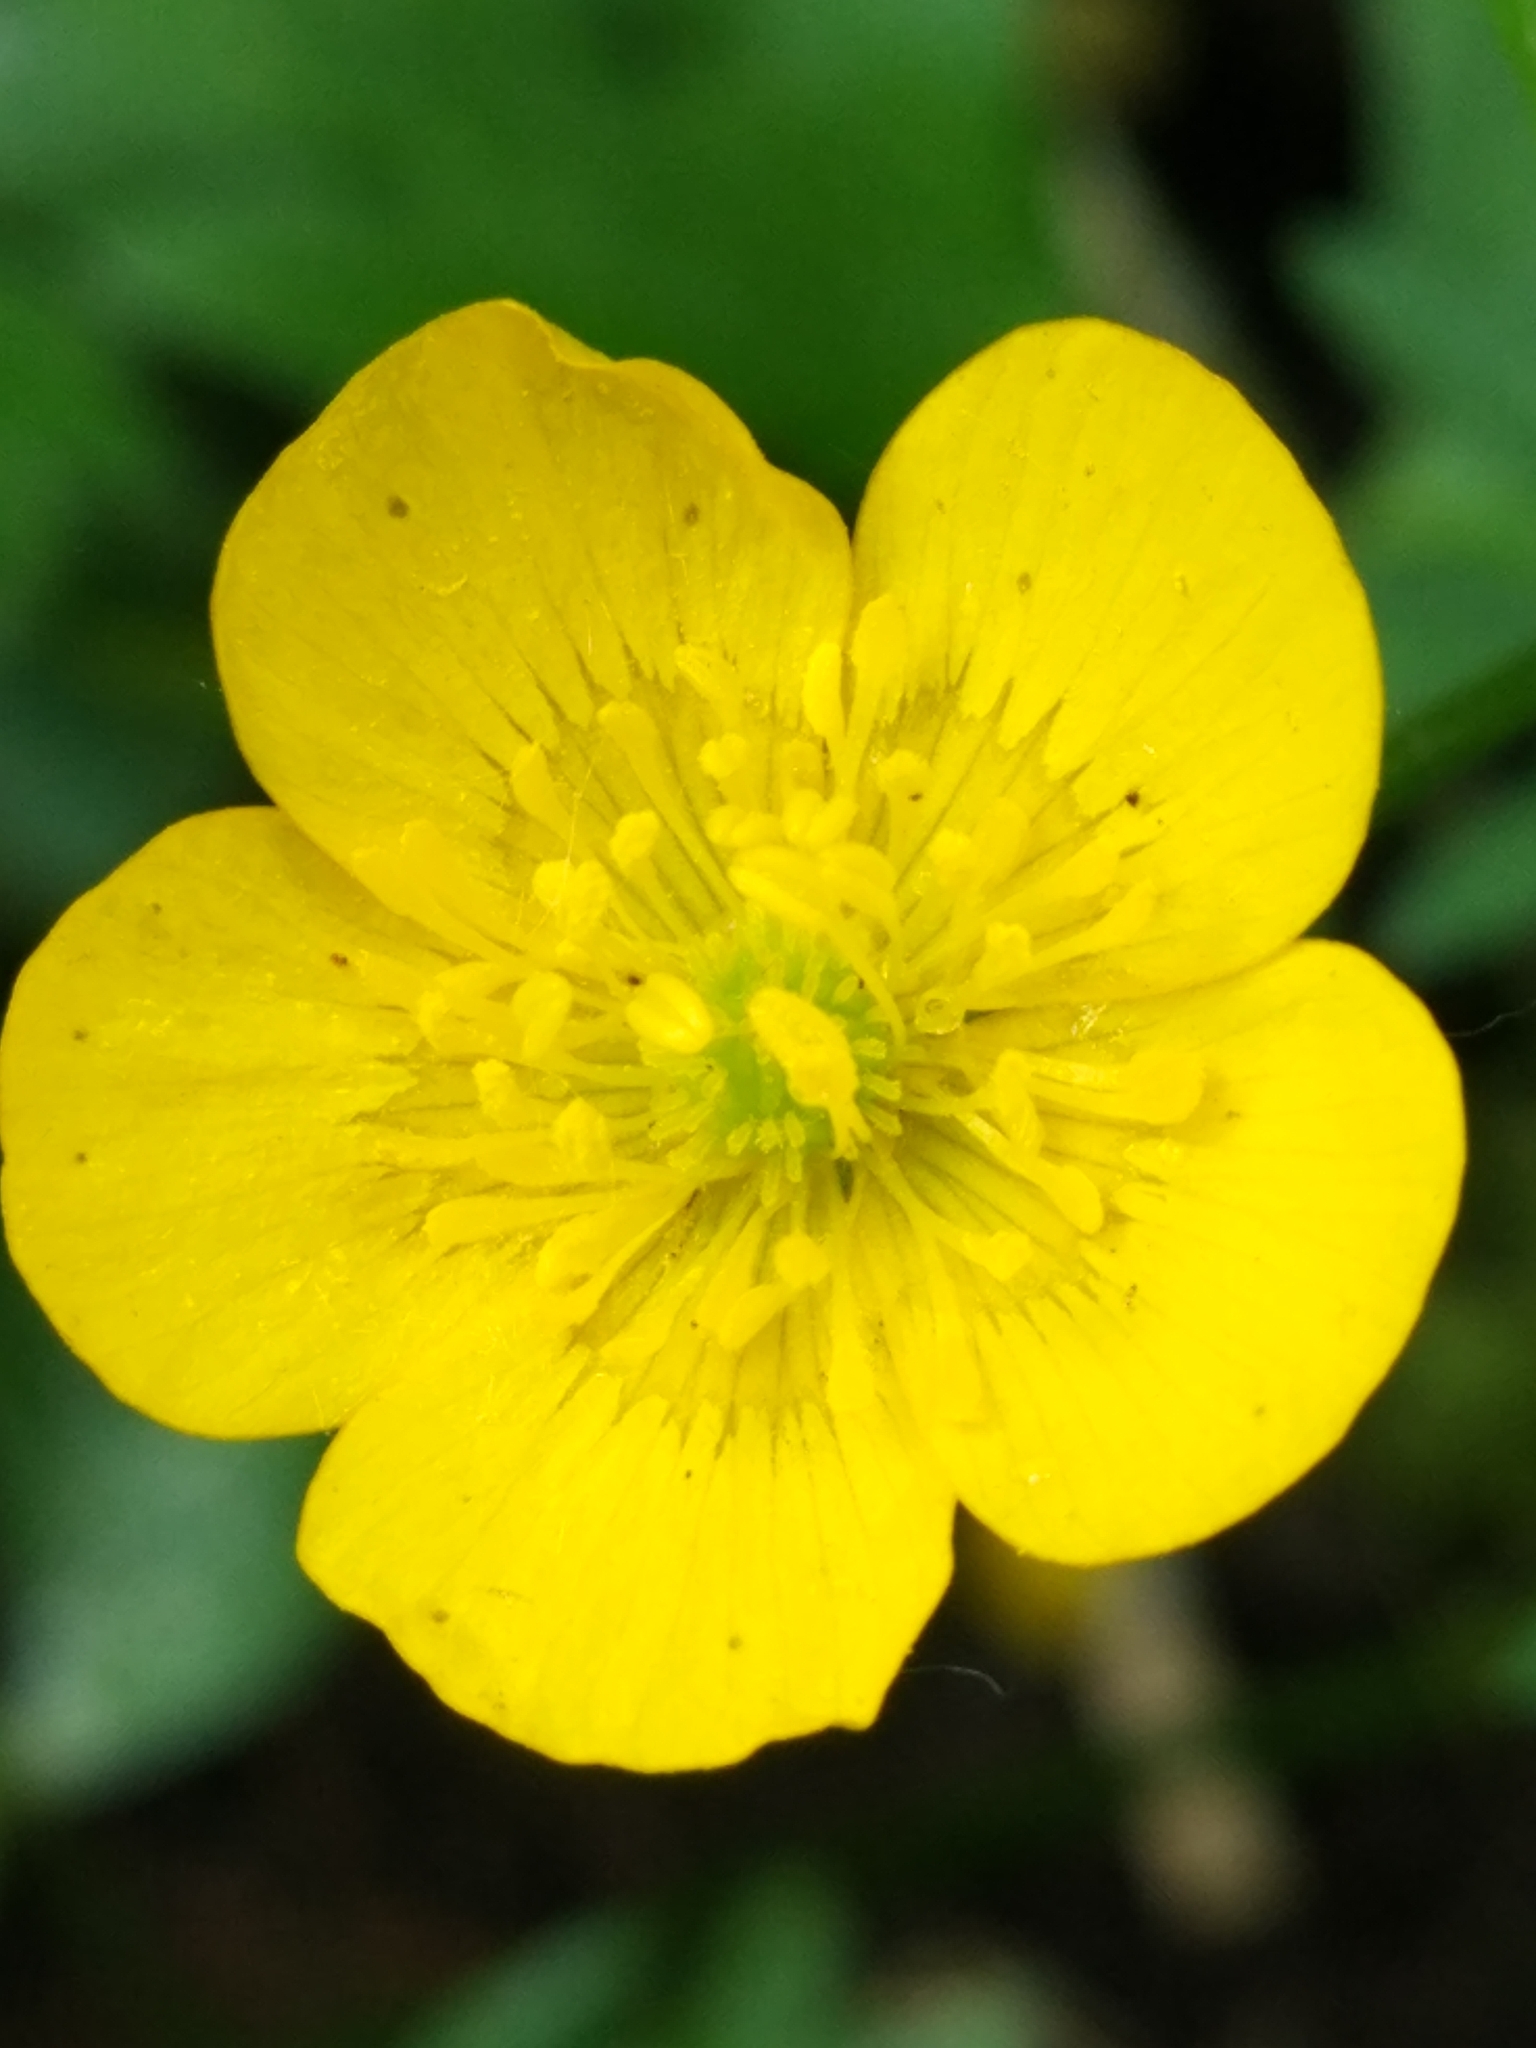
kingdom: Plantae
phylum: Tracheophyta
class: Magnoliopsida
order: Ranunculales
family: Ranunculaceae
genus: Ranunculus
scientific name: Ranunculus repens
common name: Creeping buttercup
